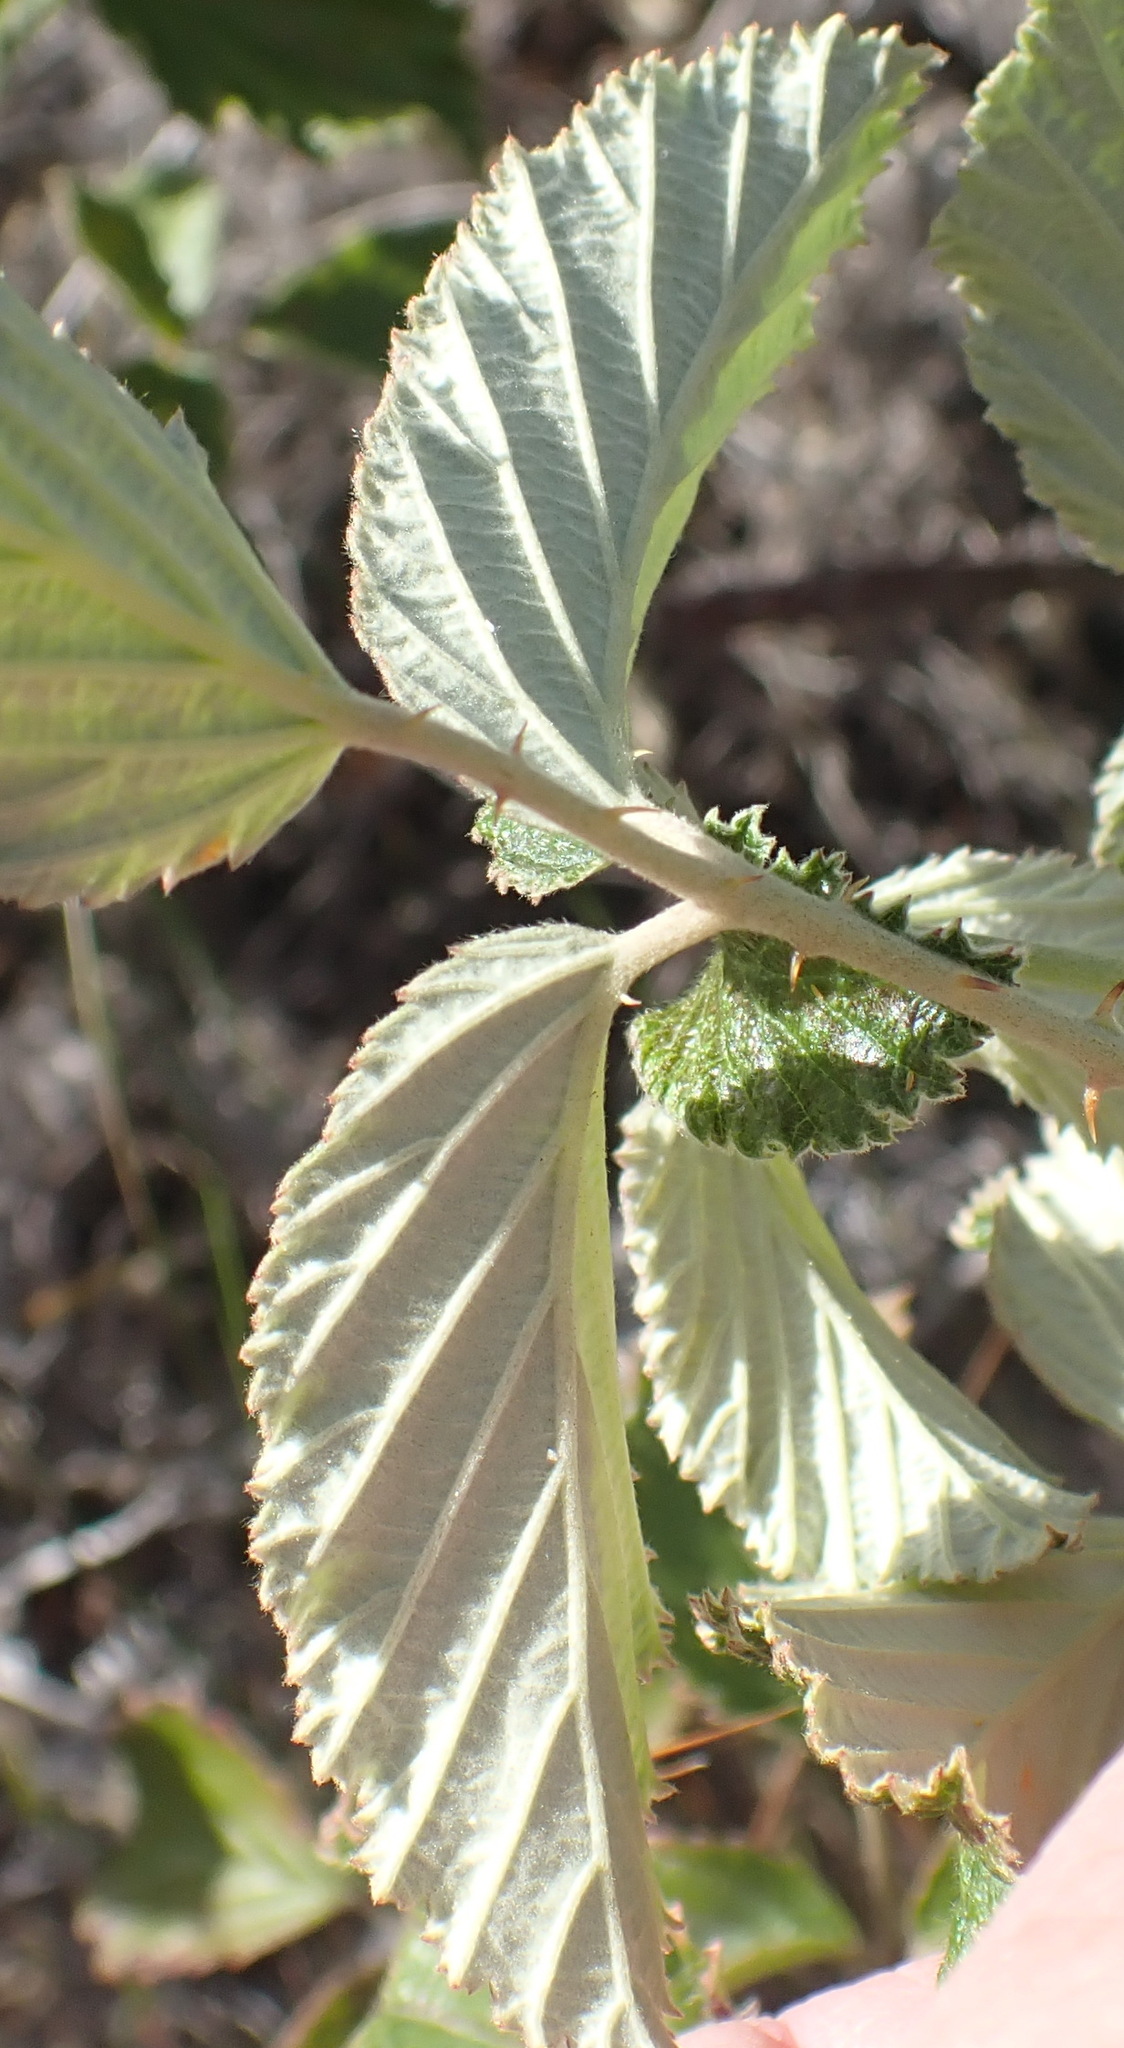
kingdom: Plantae
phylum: Tracheophyta
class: Magnoliopsida
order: Rosales
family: Rosaceae
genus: Rubus
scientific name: Rubus rigidus
